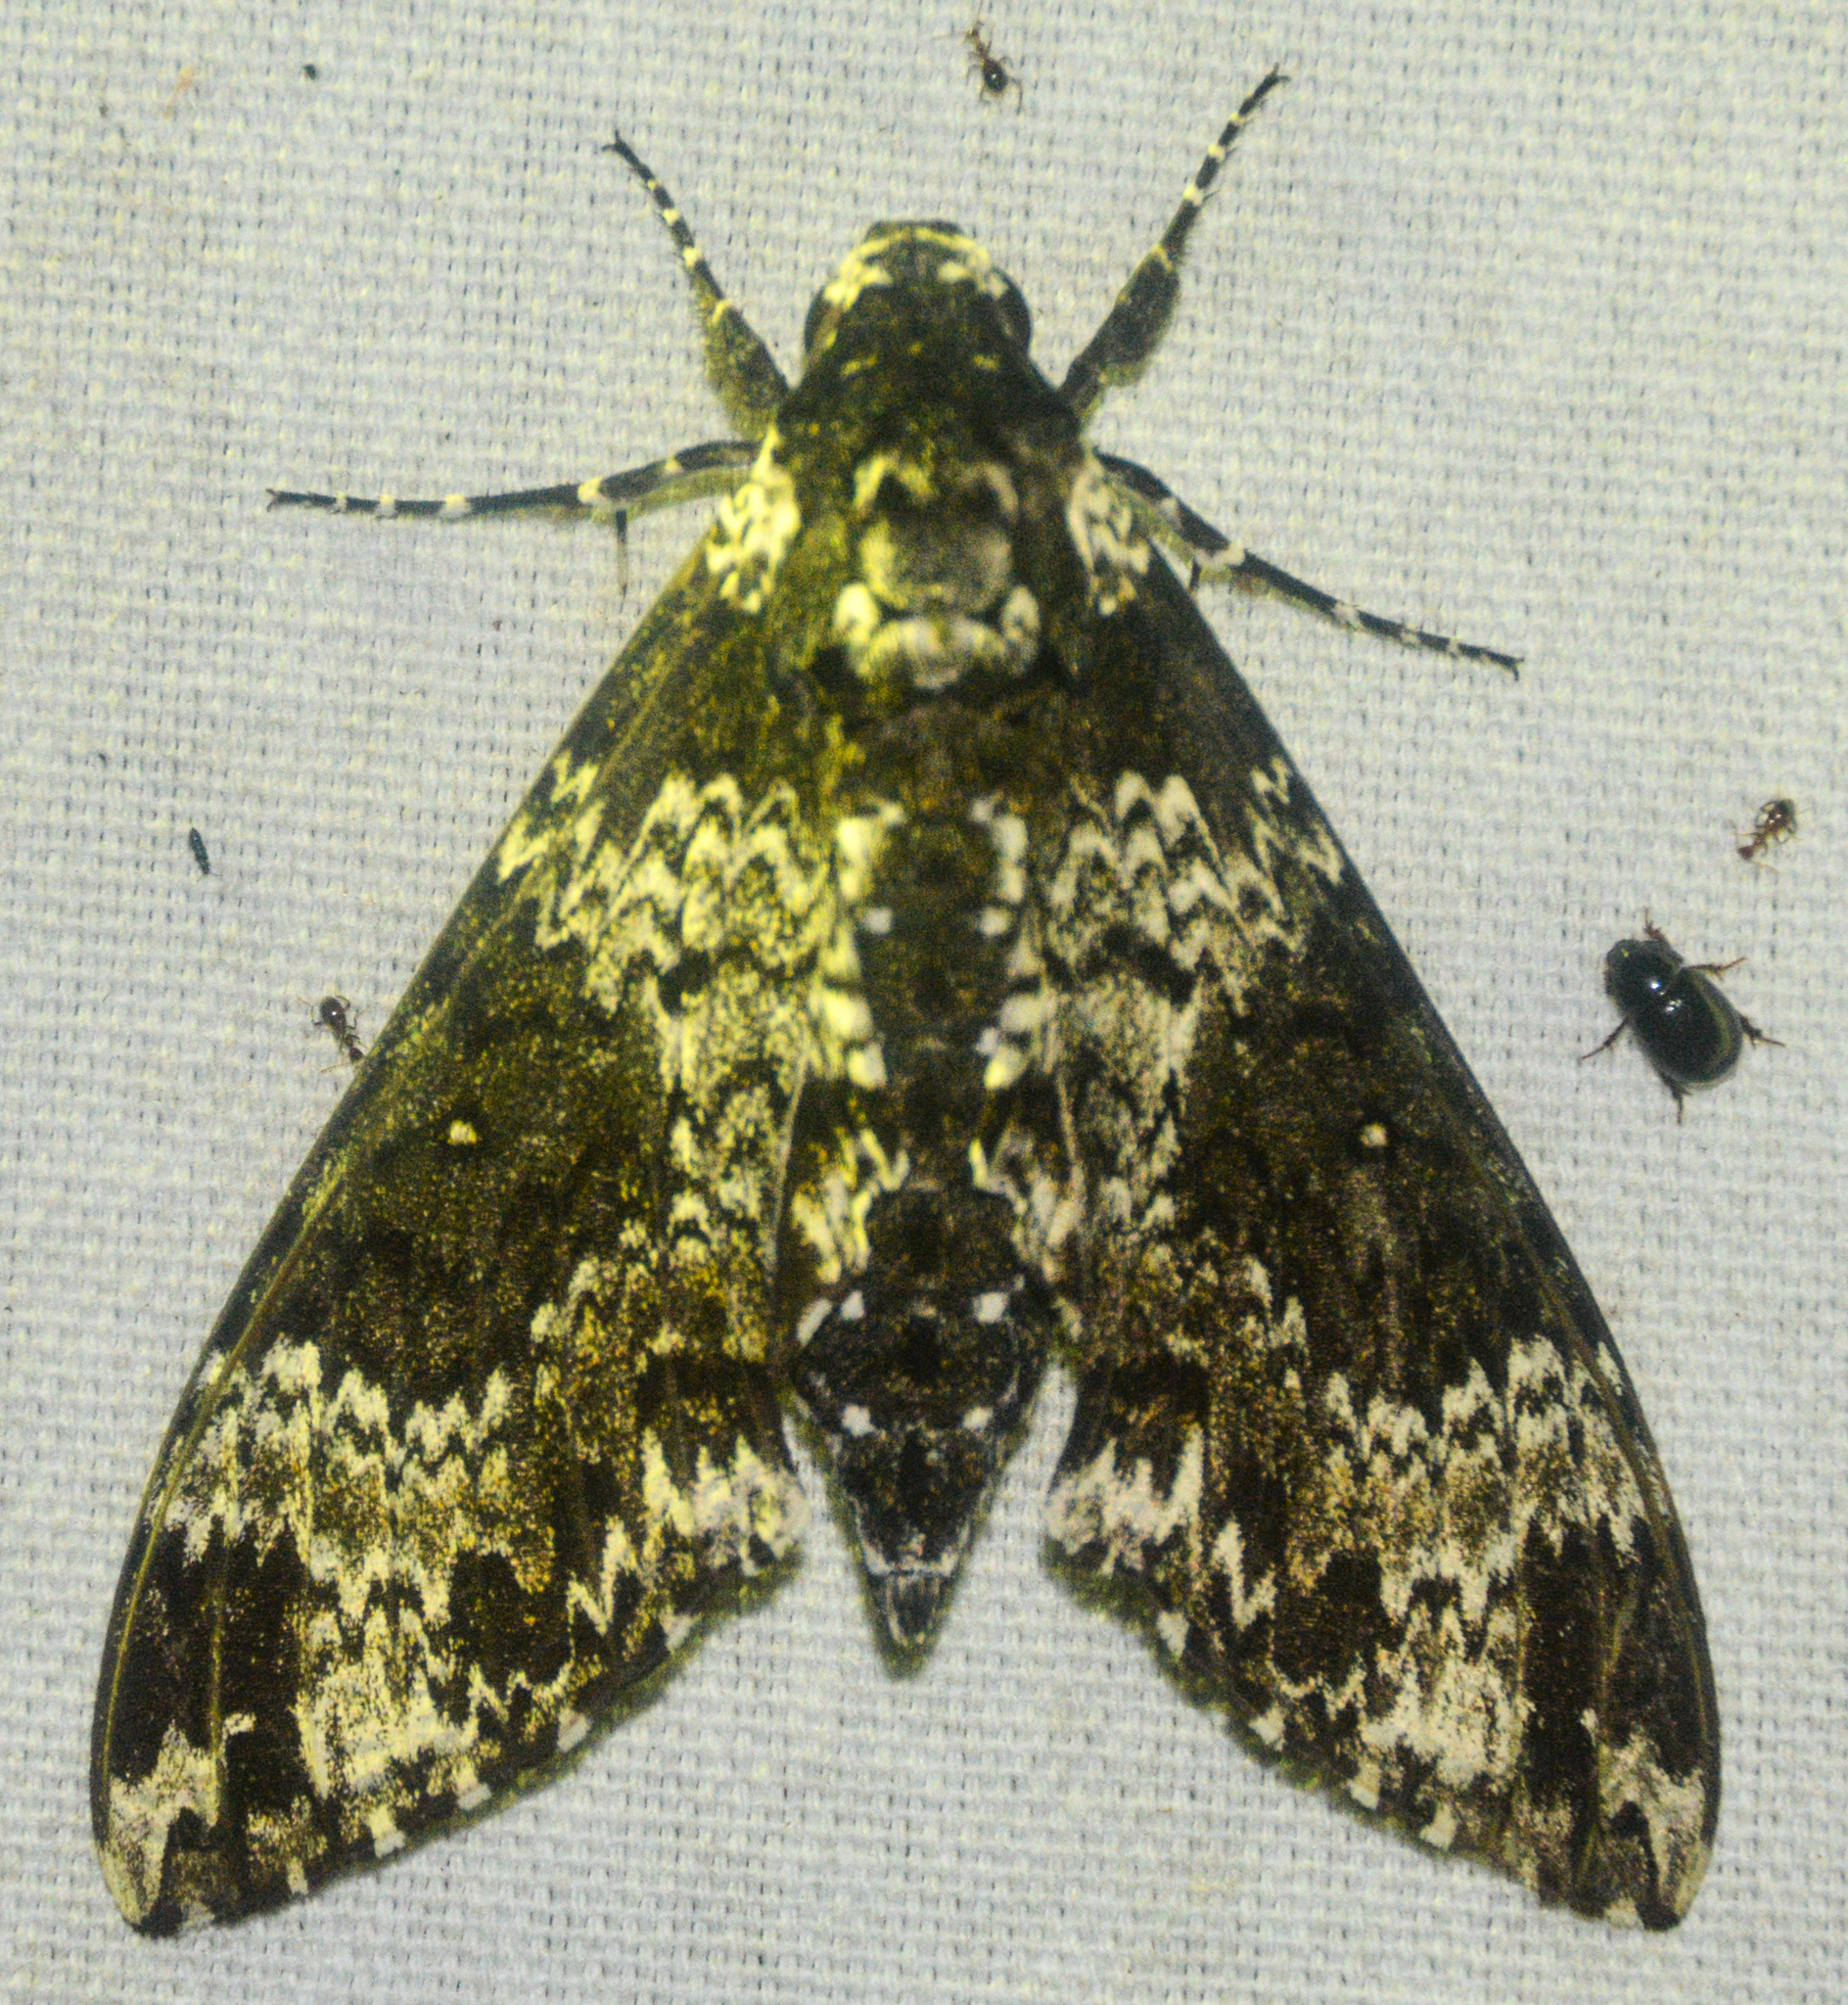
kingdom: Animalia
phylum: Arthropoda
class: Insecta
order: Lepidoptera
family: Sphingidae
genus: Manduca
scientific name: Manduca rustica
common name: Rustic sphinx
